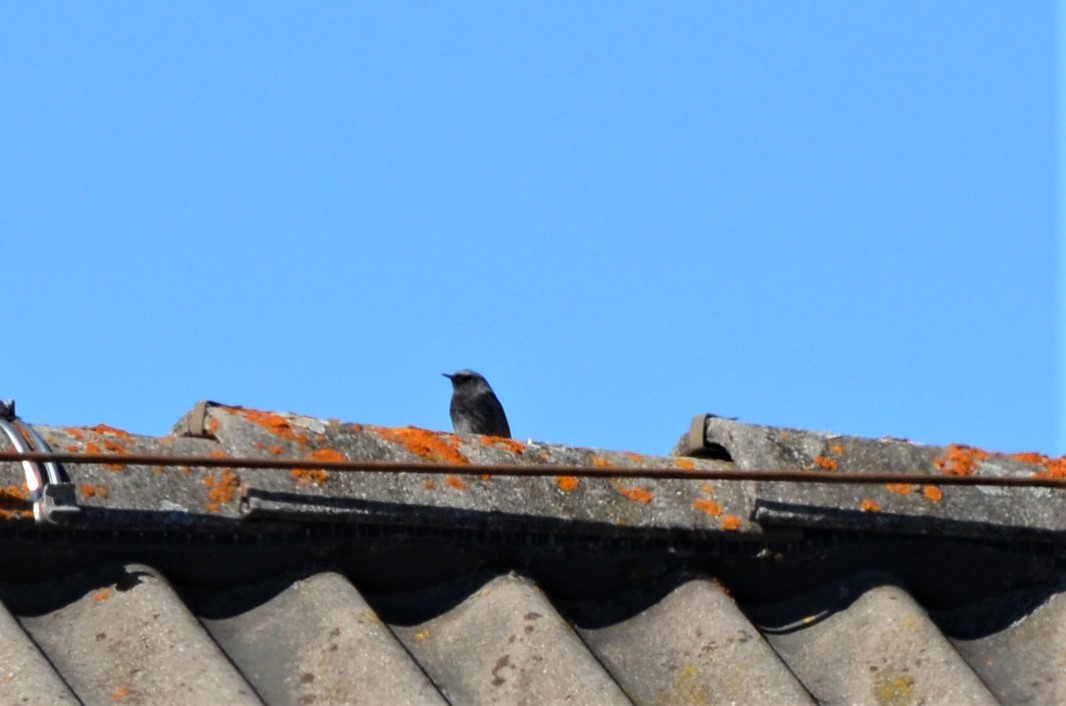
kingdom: Animalia
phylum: Chordata
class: Aves
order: Passeriformes
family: Muscicapidae
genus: Phoenicurus
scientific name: Phoenicurus ochruros
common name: Black redstart
